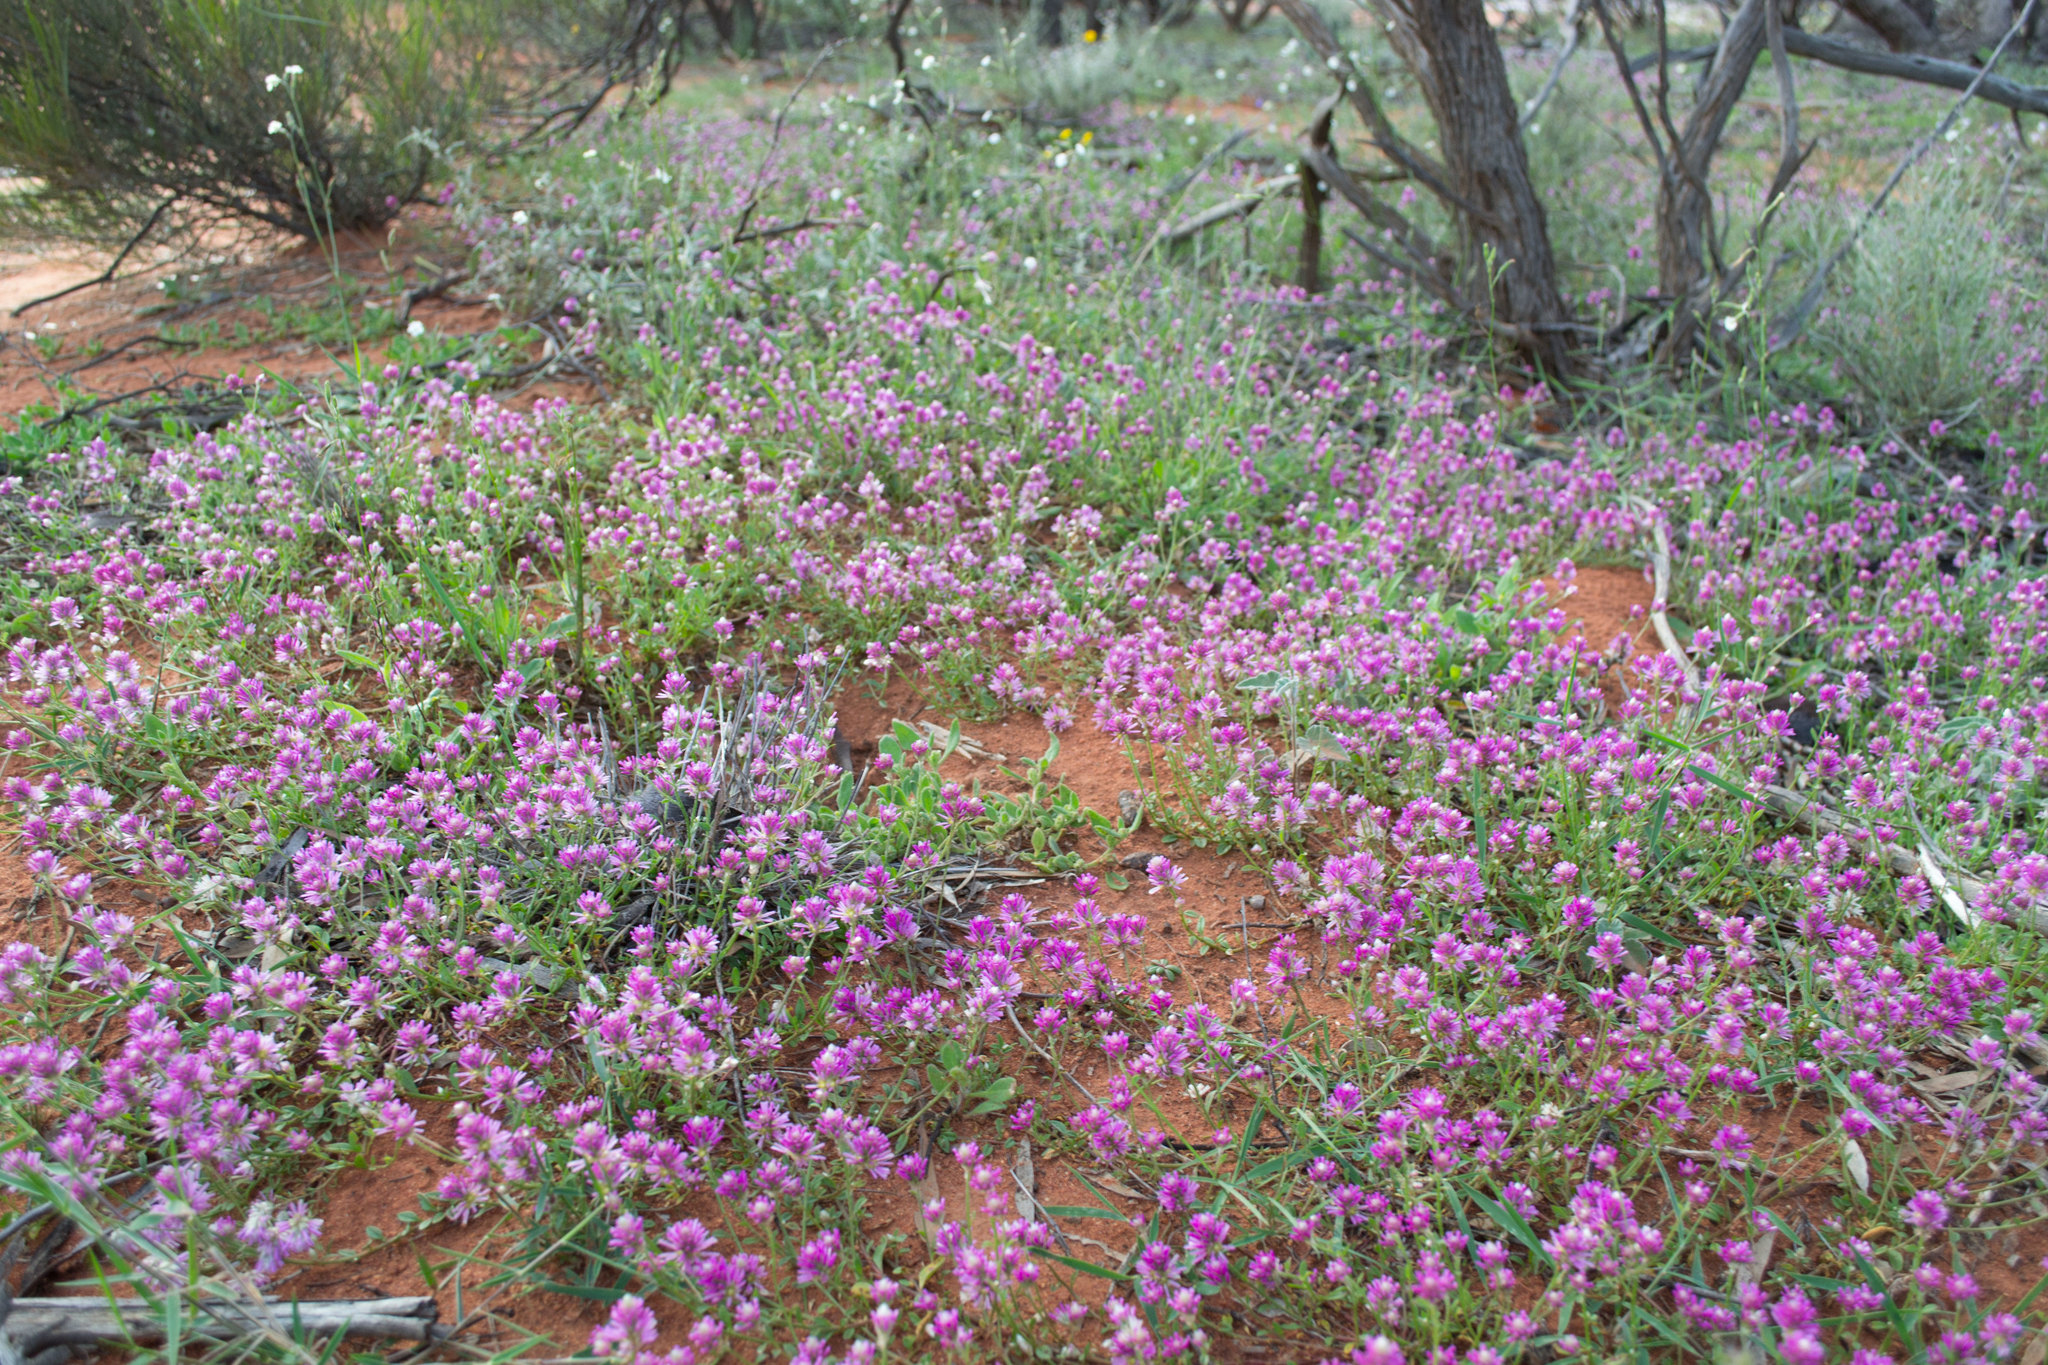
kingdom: Plantae
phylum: Tracheophyta
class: Magnoliopsida
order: Caryophyllales
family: Amaranthaceae
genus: Ptilotus
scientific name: Ptilotus grandiflorus
